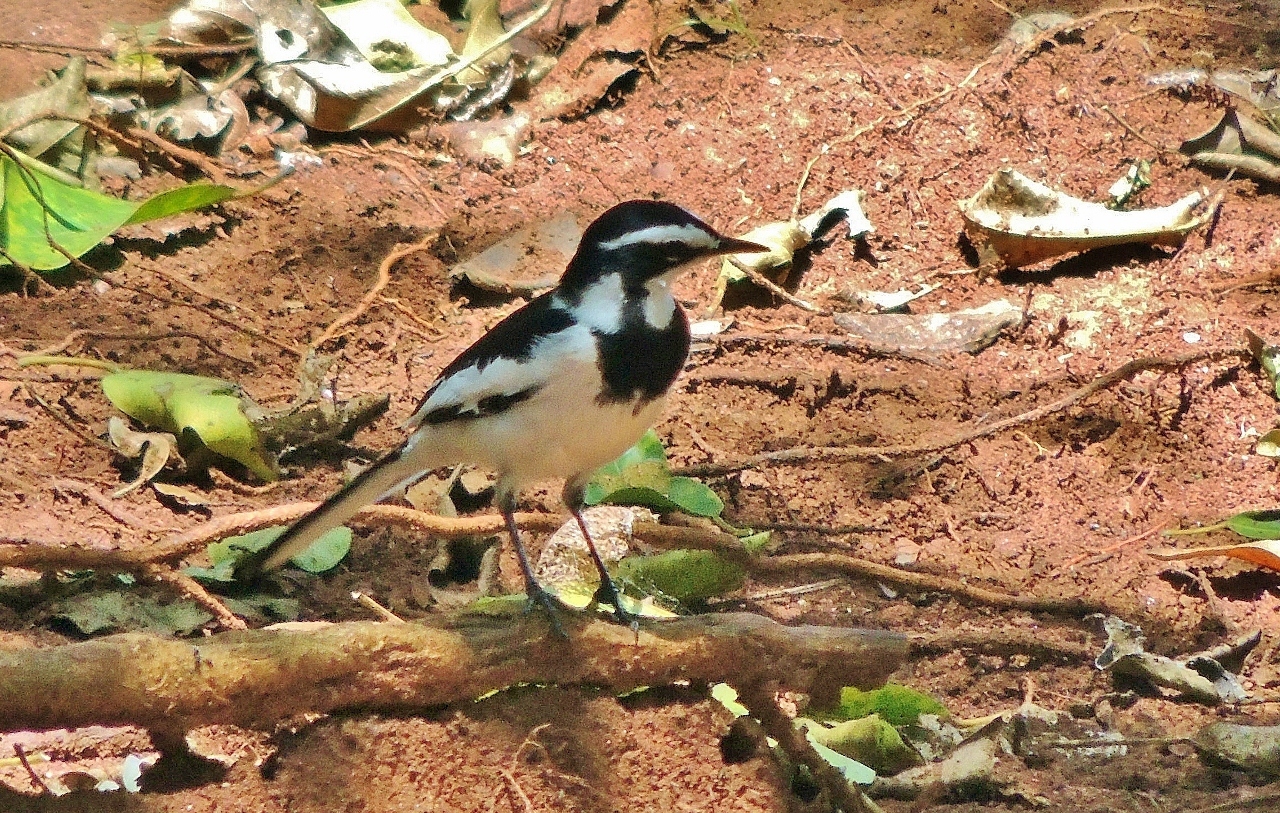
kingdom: Animalia
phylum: Chordata
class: Aves
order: Passeriformes
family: Motacillidae
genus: Motacilla
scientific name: Motacilla aguimp
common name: African pied wagtail
